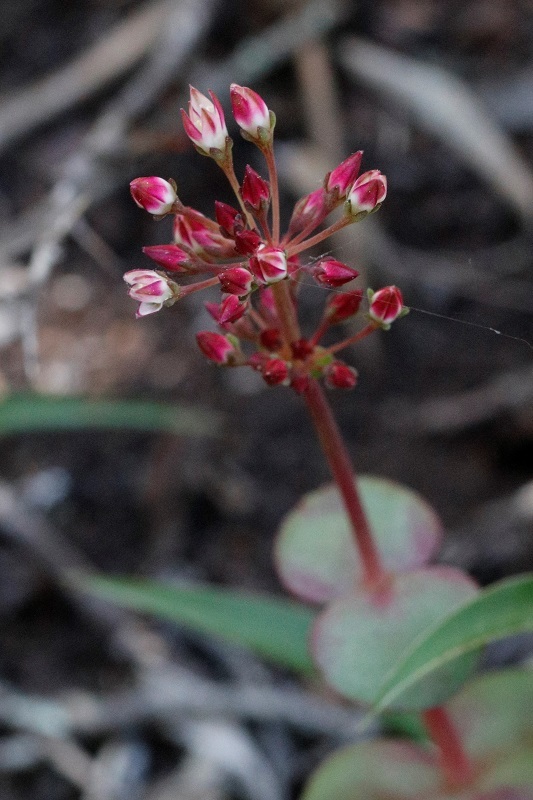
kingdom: Plantae
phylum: Tracheophyta
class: Magnoliopsida
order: Saxifragales
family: Crassulaceae
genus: Crassula
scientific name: Crassula pellucida
